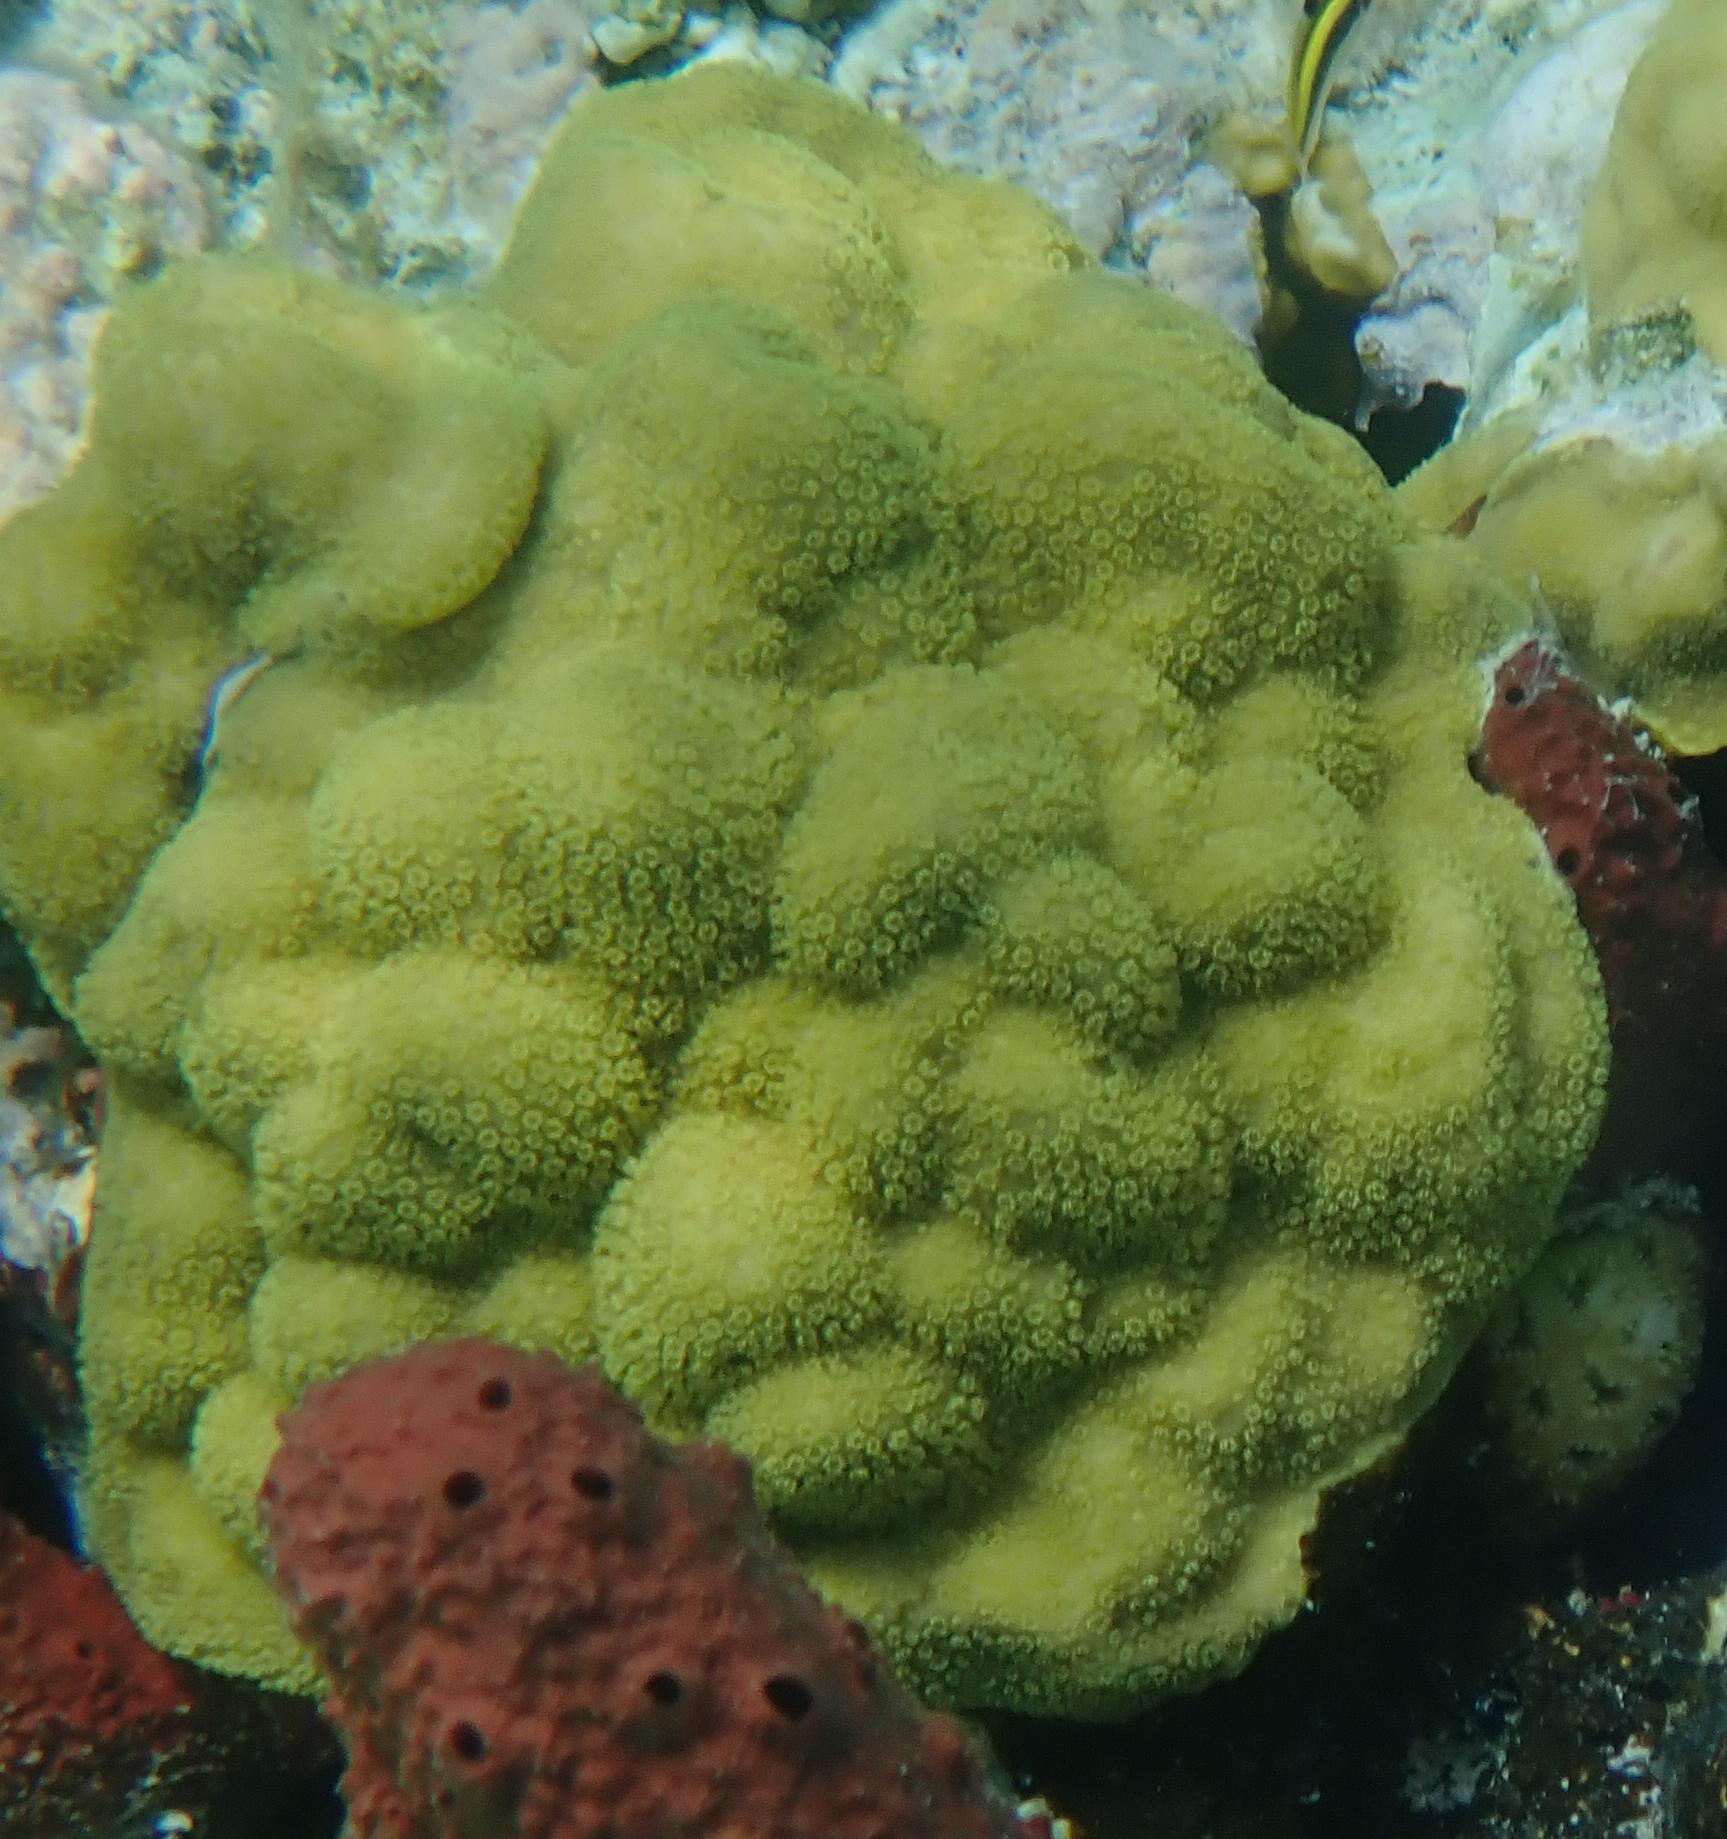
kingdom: Animalia
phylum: Cnidaria
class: Anthozoa
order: Scleractinia
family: Poritidae
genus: Porites
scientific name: Porites astreoides
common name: Mustard hill coral
